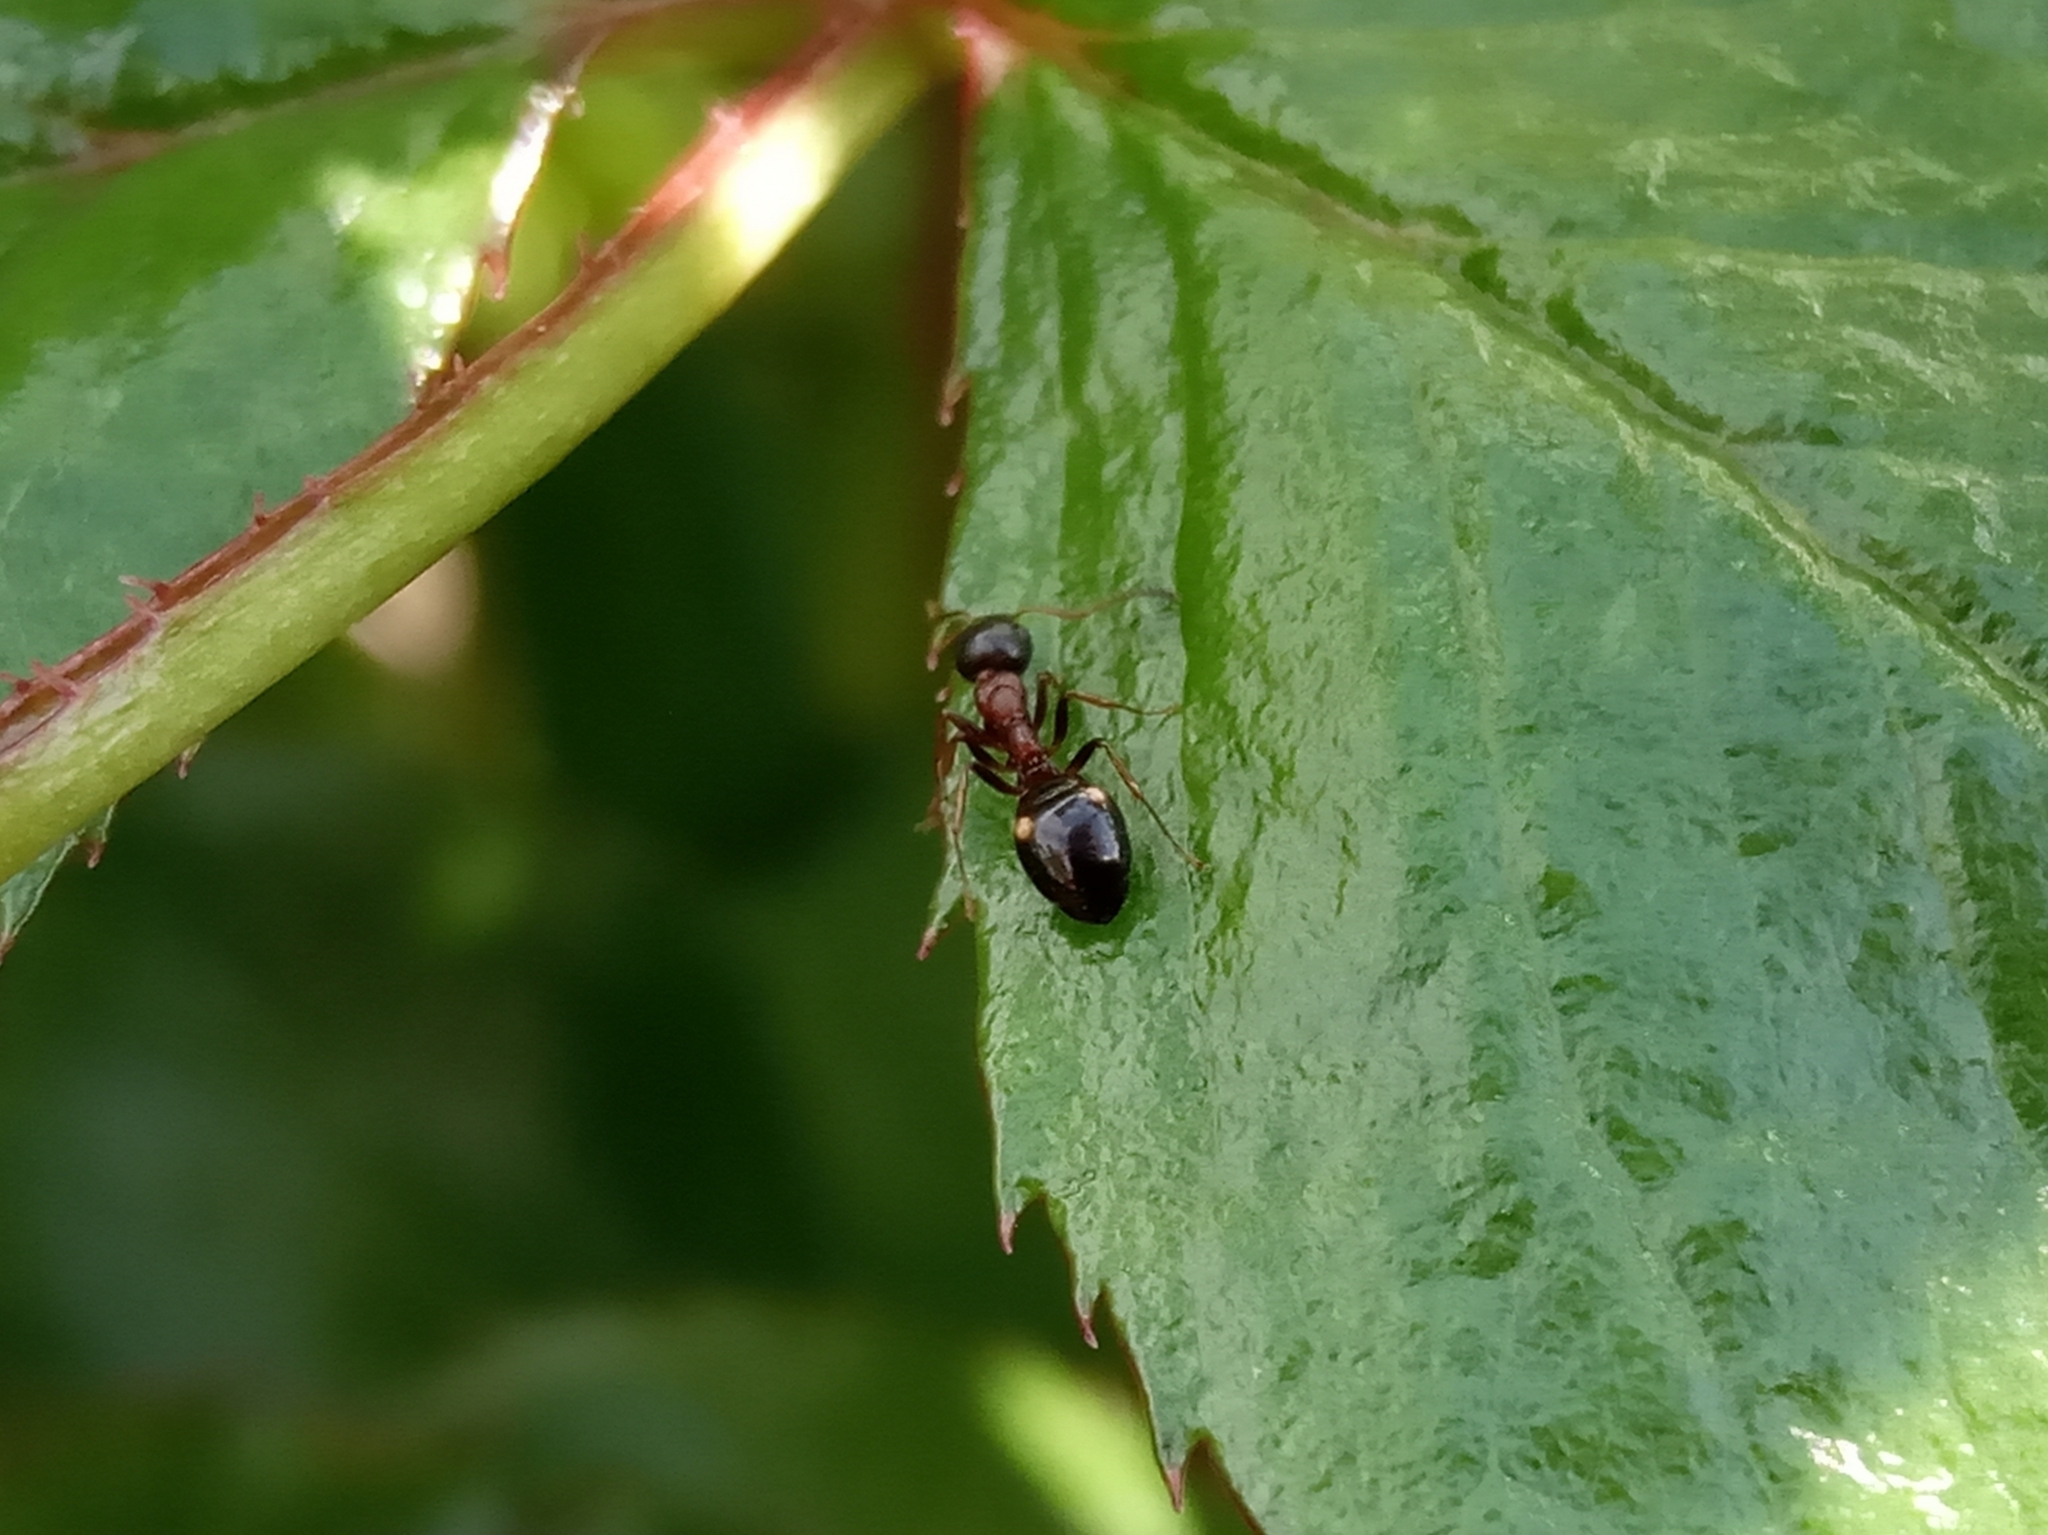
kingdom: Animalia
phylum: Arthropoda
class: Insecta
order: Hymenoptera
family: Formicidae
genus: Dolichoderus
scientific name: Dolichoderus quadripunctatus
